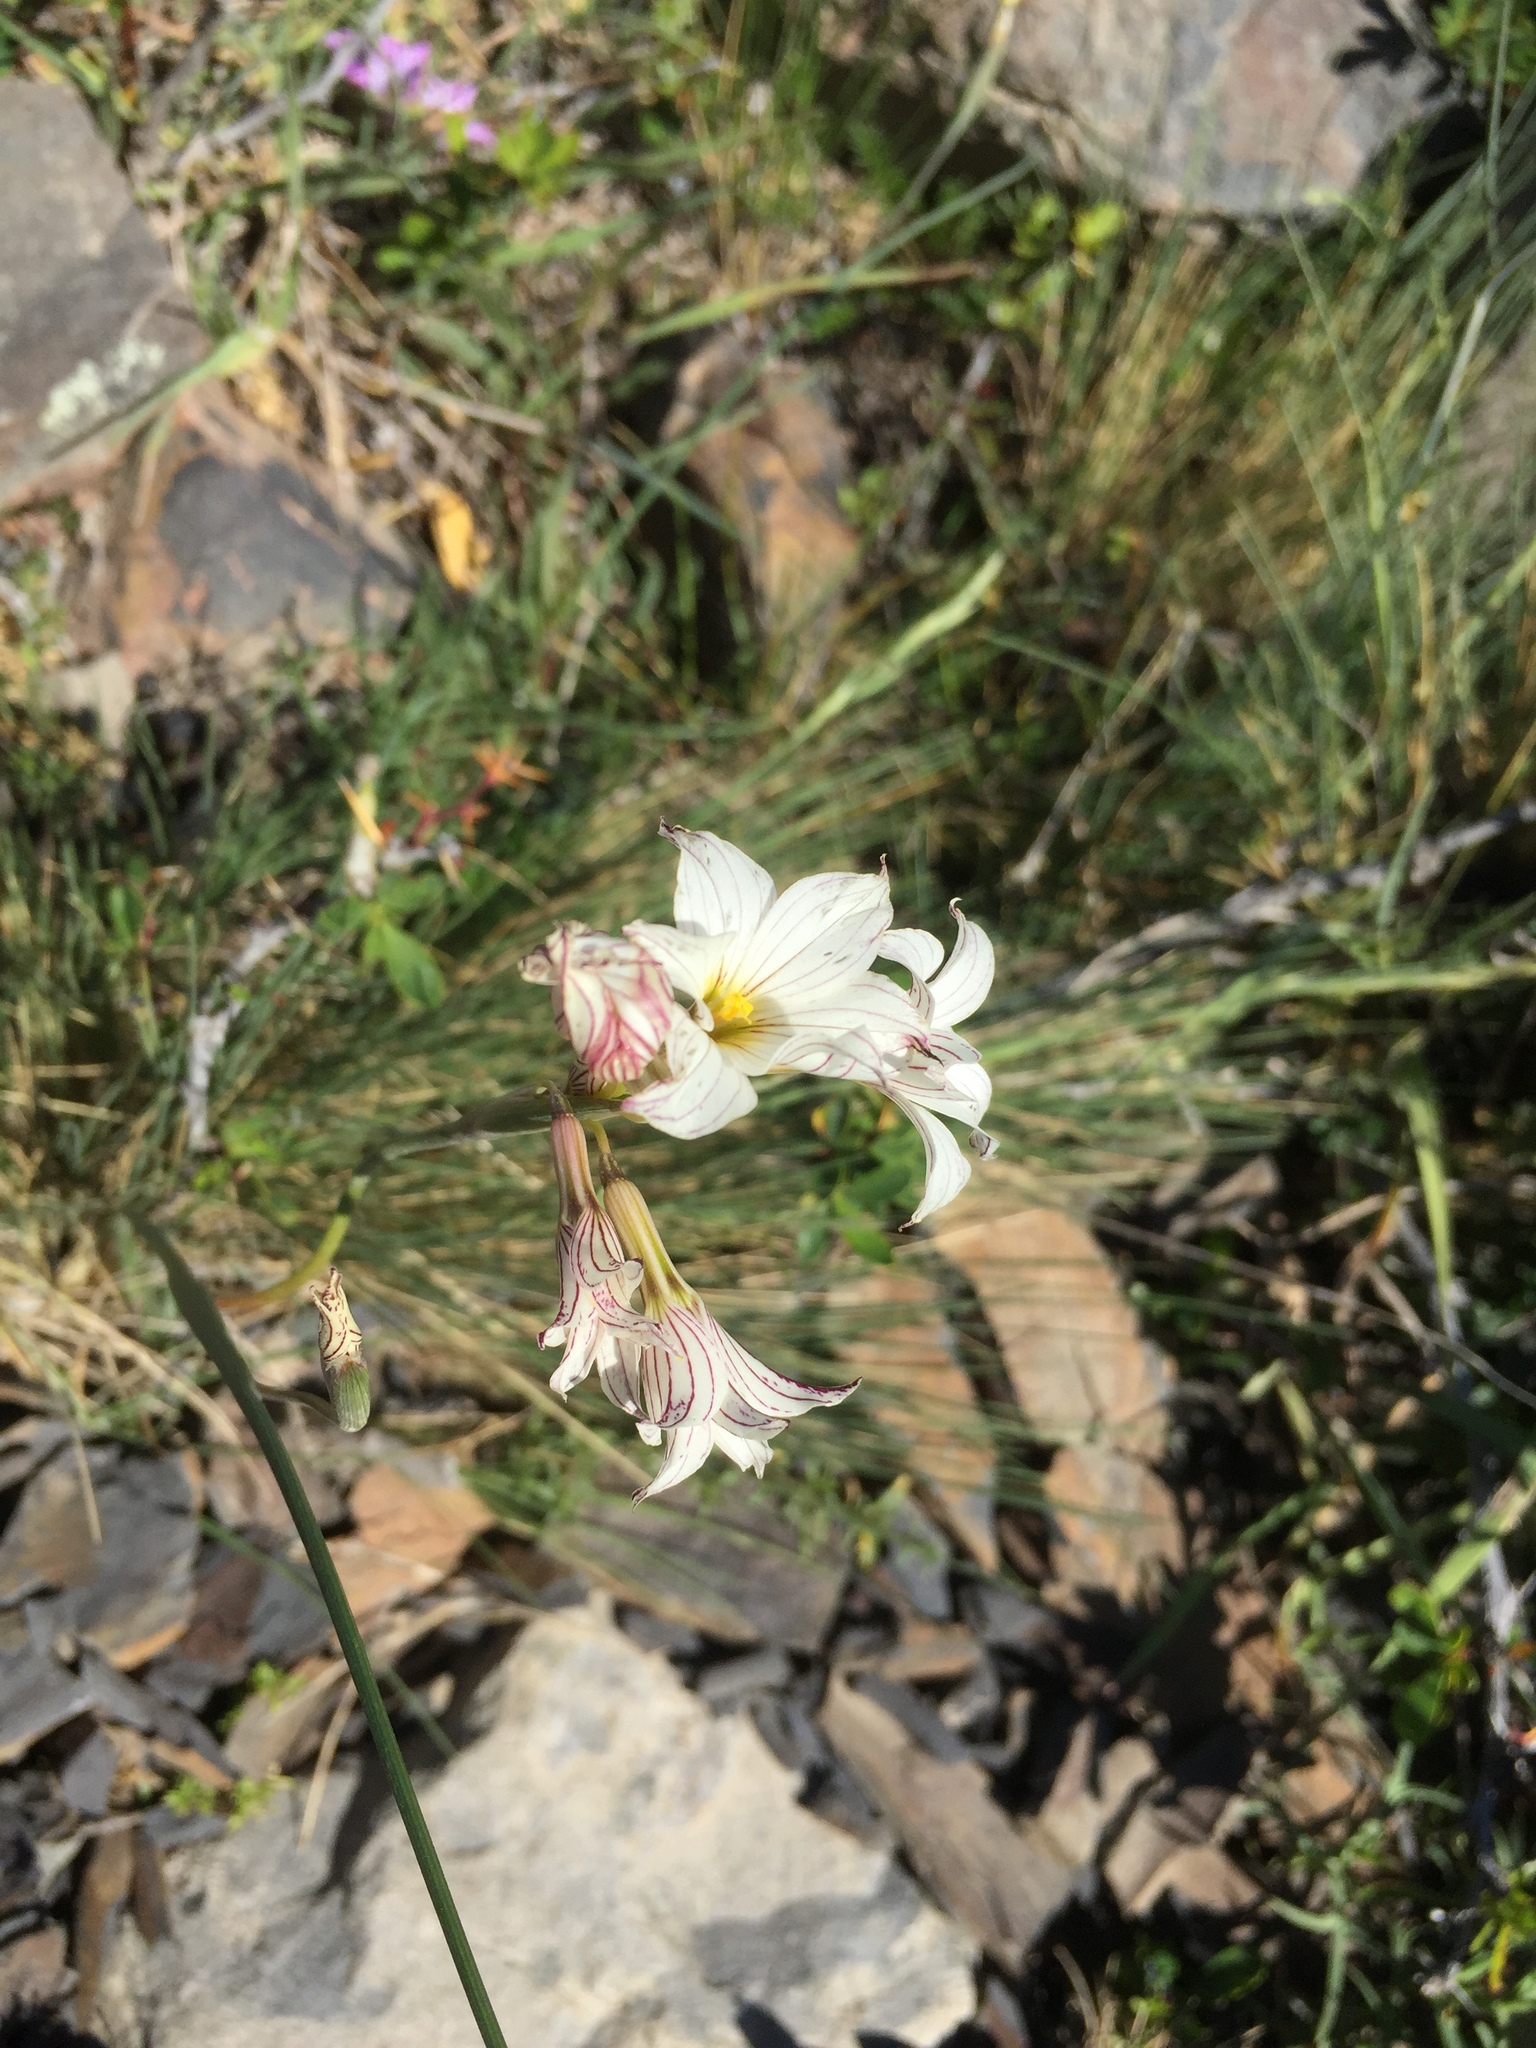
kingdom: Plantae
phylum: Tracheophyta
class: Liliopsida
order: Asparagales
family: Iridaceae
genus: Olsynium
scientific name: Olsynium biflorum
